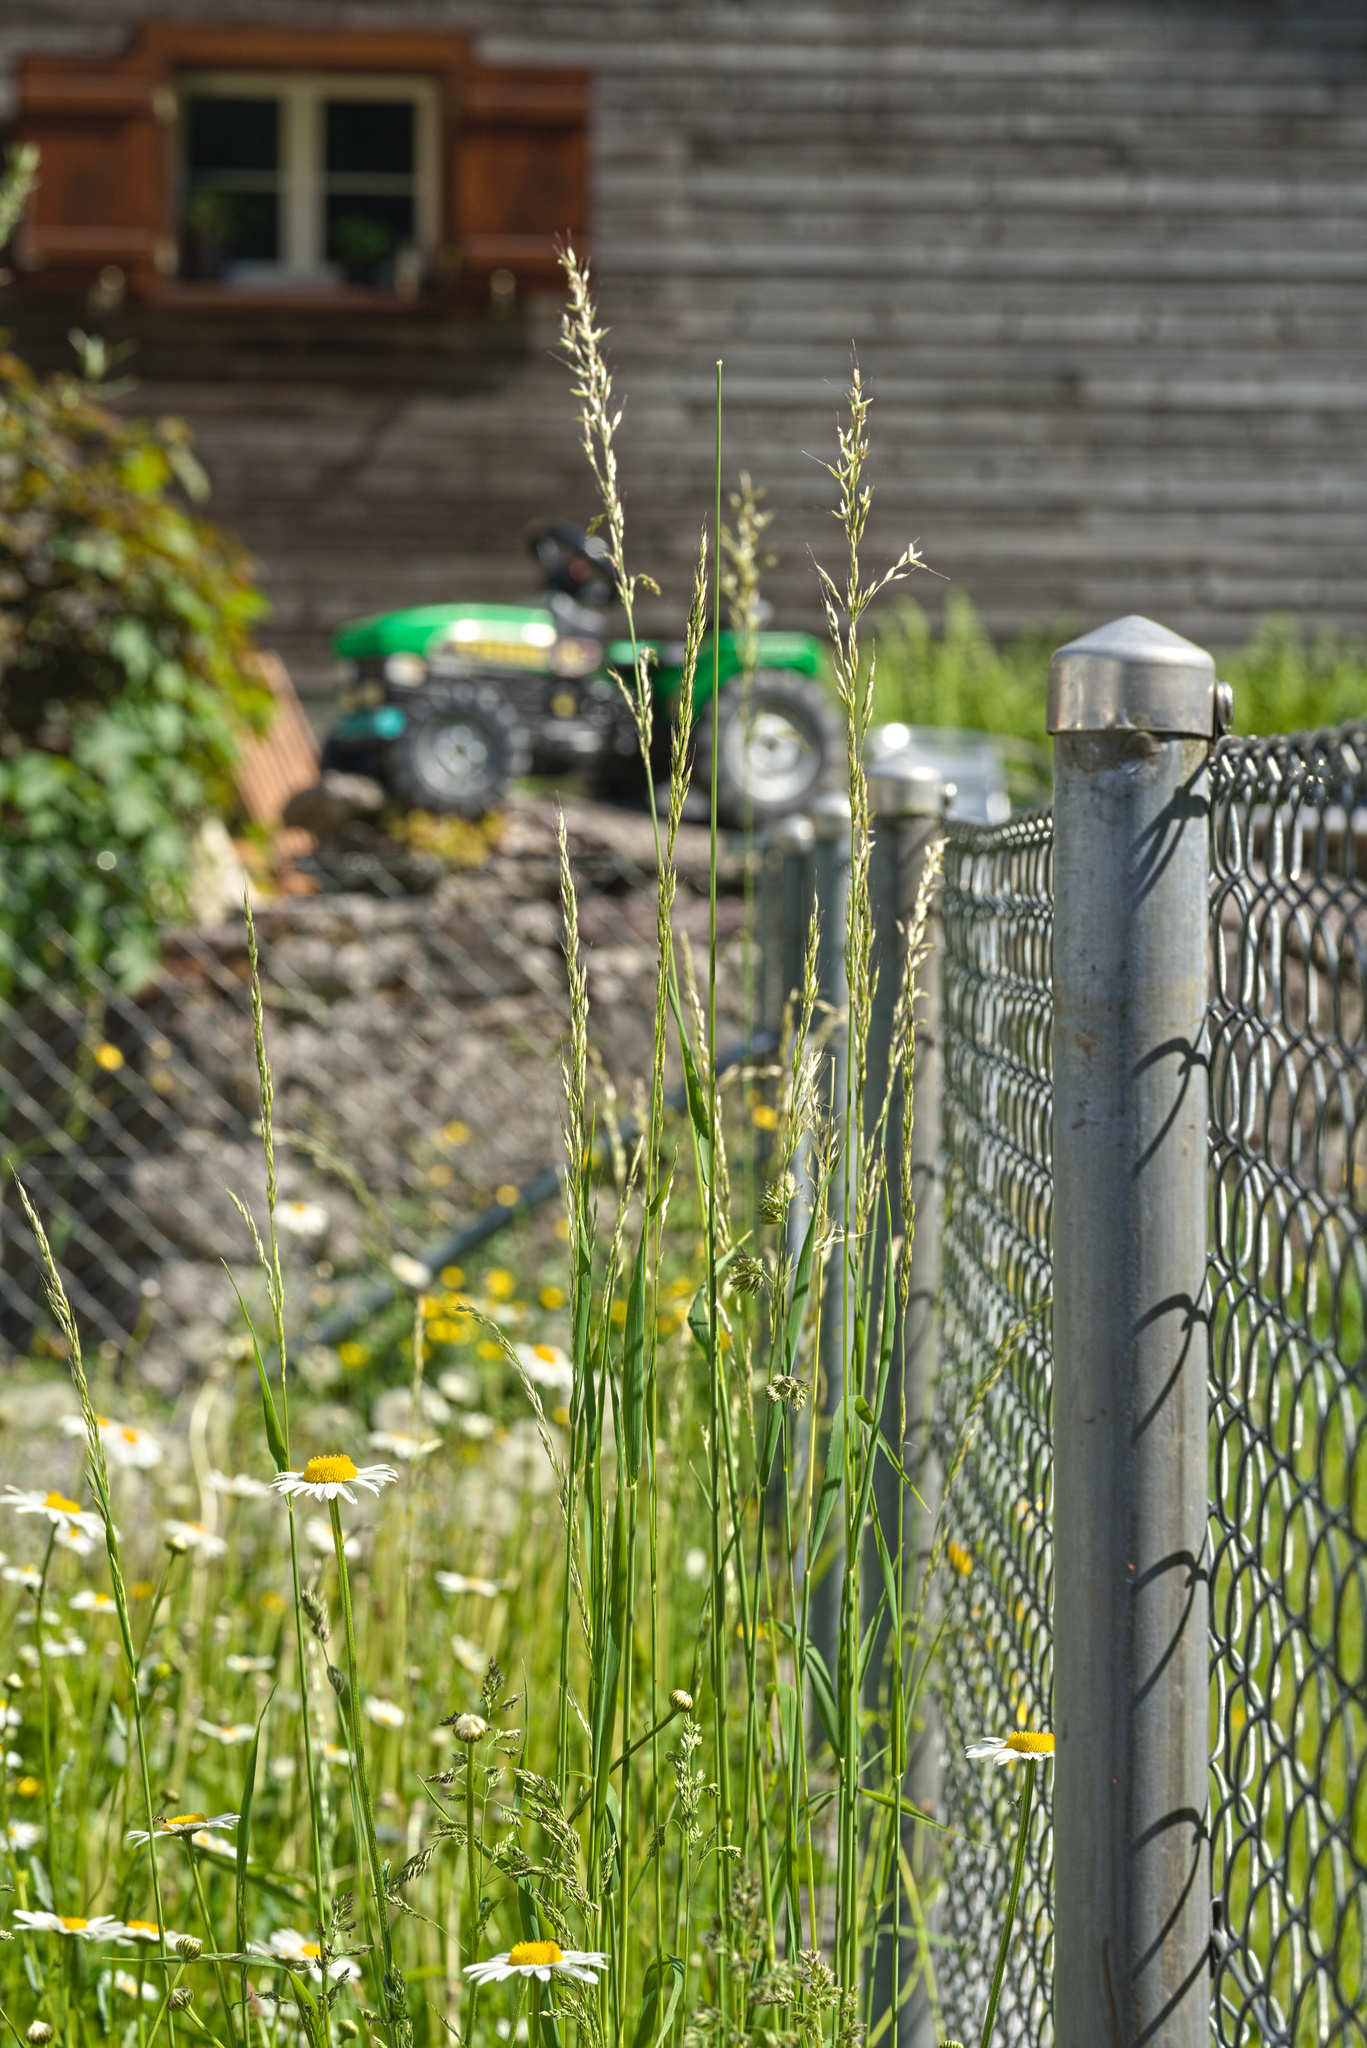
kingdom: Plantae
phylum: Tracheophyta
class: Liliopsida
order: Poales
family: Poaceae
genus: Arrhenatherum
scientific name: Arrhenatherum elatius
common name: Tall oatgrass
